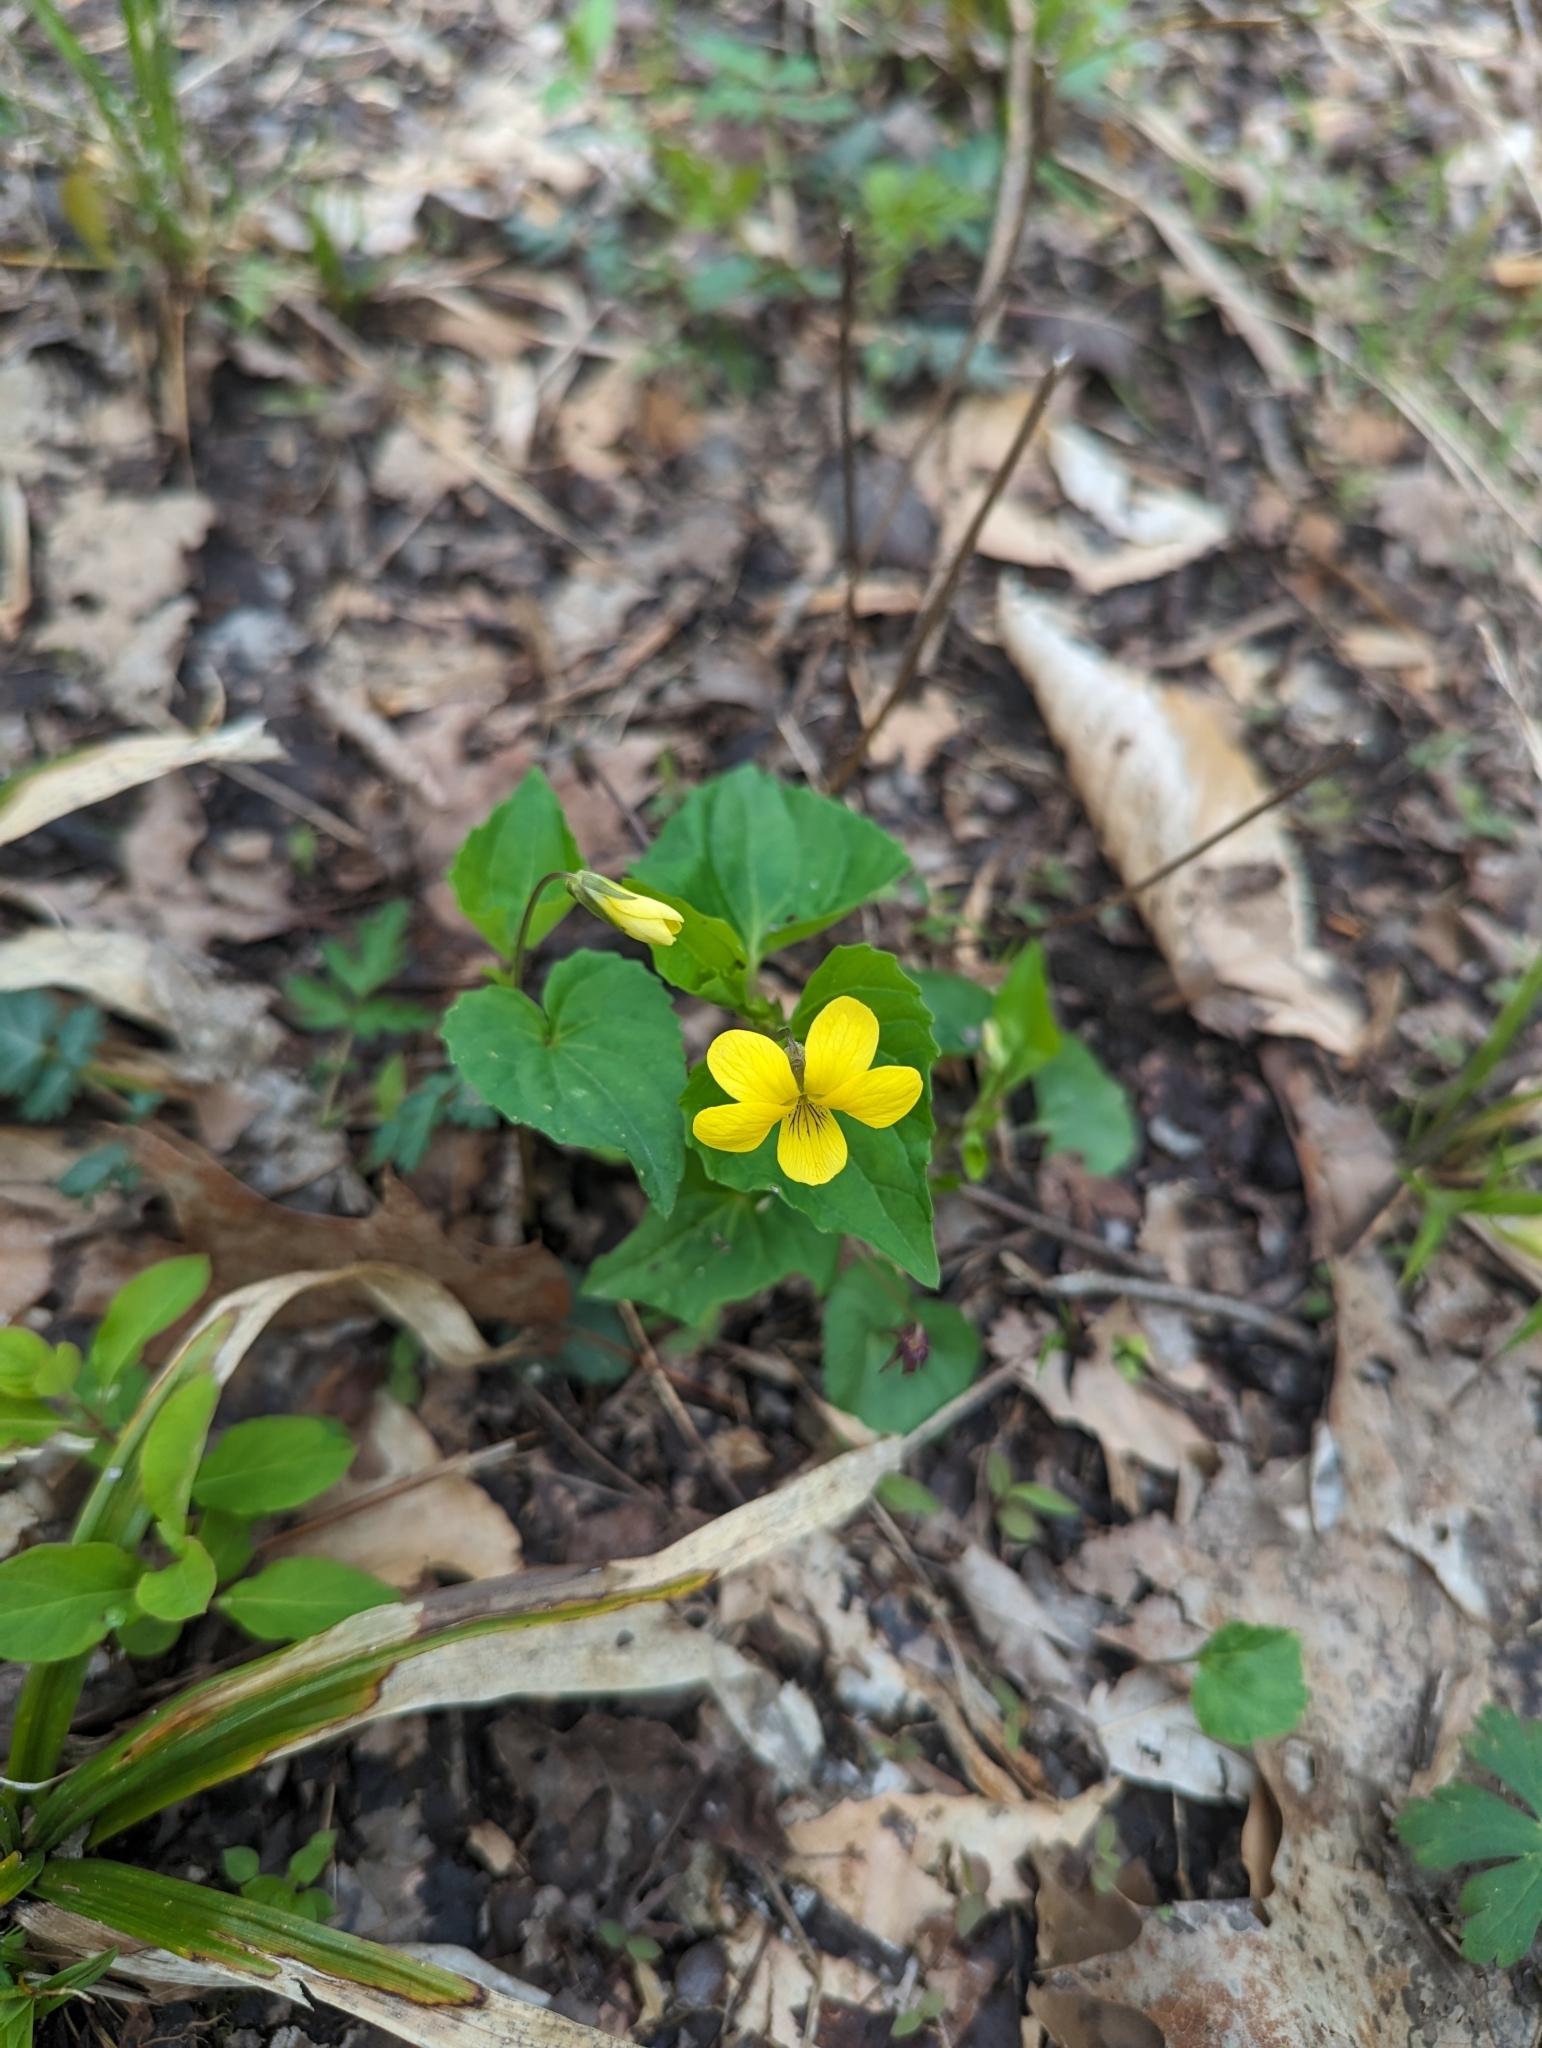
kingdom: Plantae
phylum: Tracheophyta
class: Magnoliopsida
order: Malpighiales
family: Violaceae
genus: Viola
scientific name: Viola eriocarpa
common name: Smooth yellow violet
